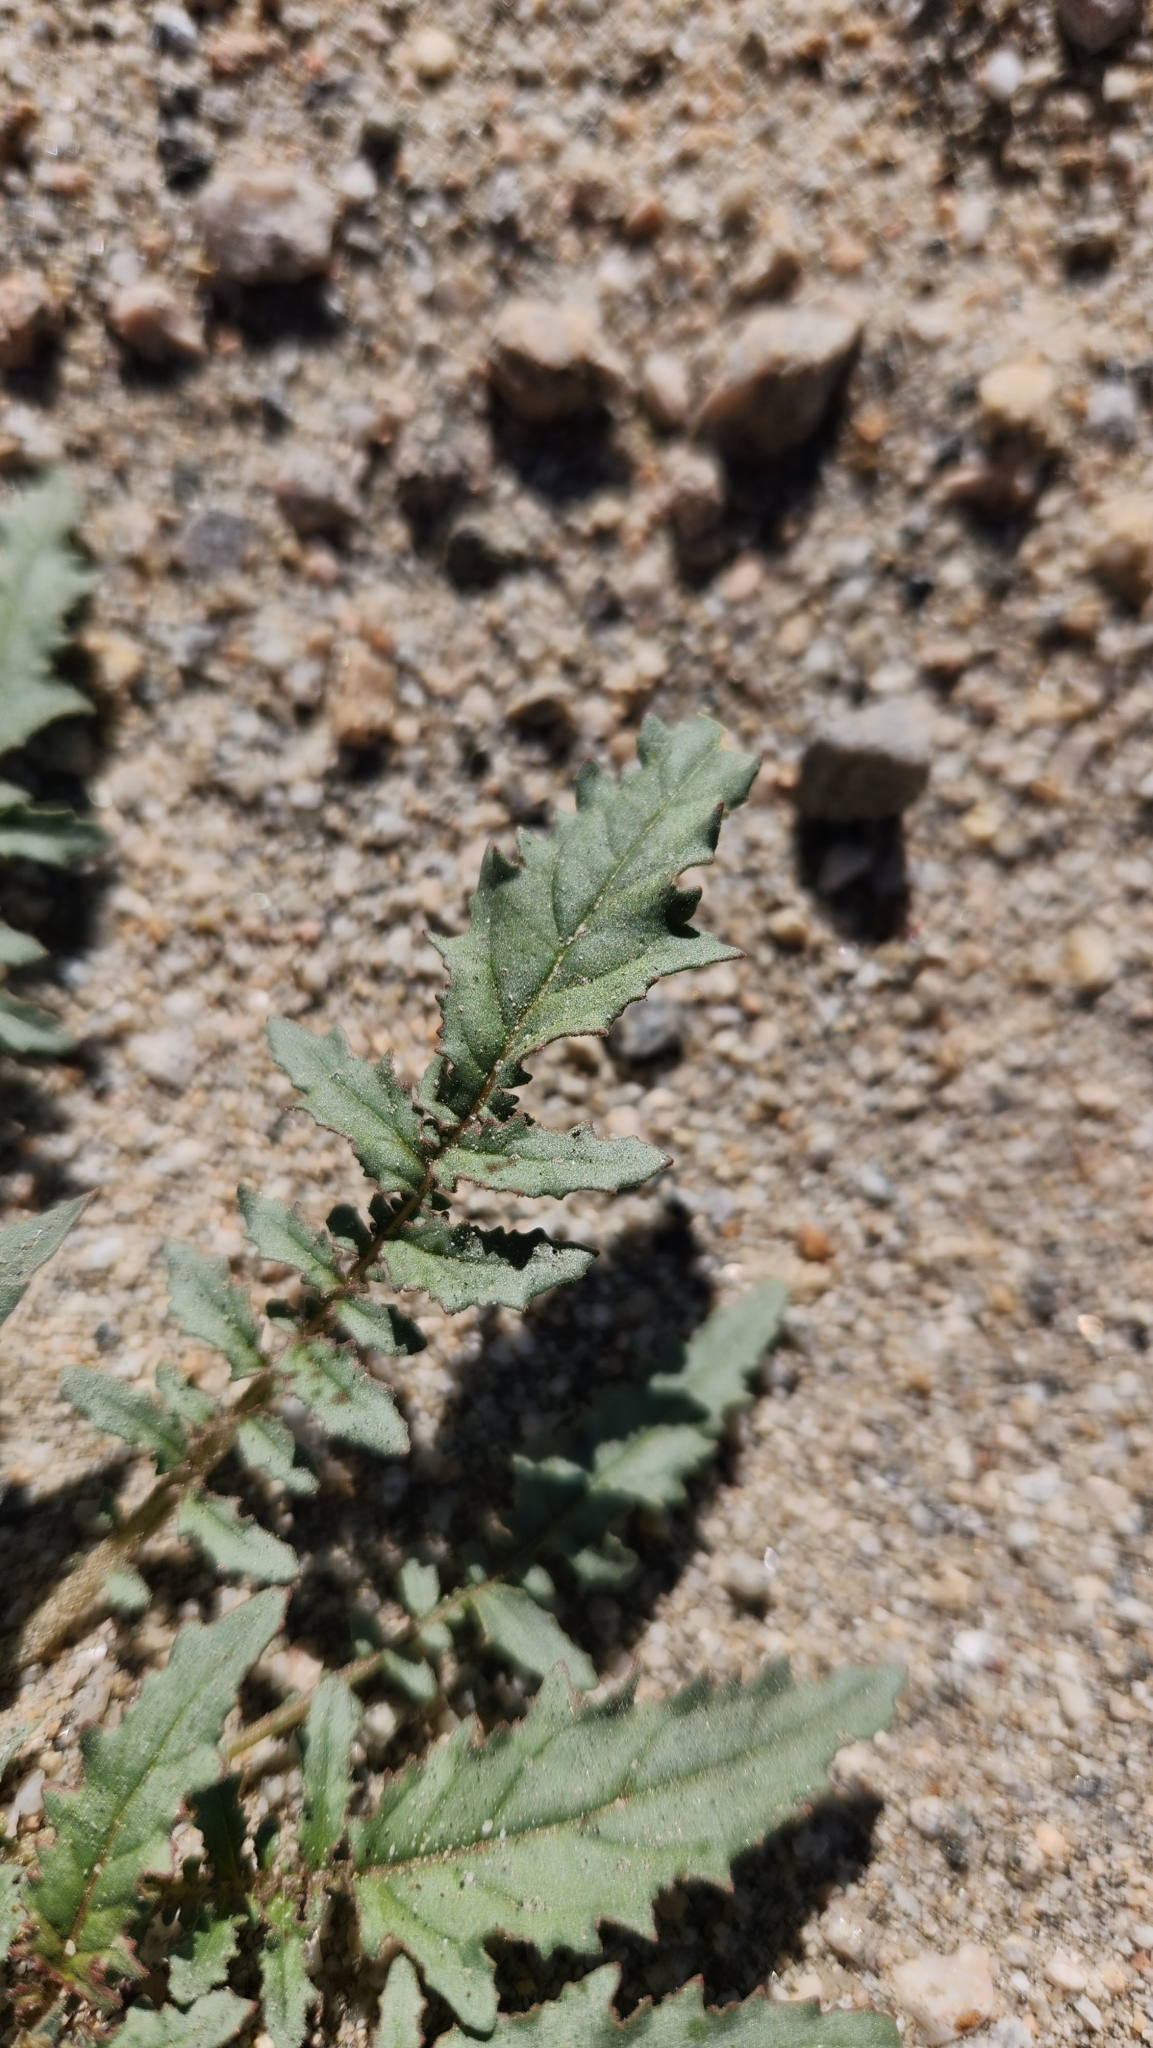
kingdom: Plantae
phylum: Tracheophyta
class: Magnoliopsida
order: Myrtales
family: Onagraceae
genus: Chylismia
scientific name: Chylismia claviformis
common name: Browneyes
